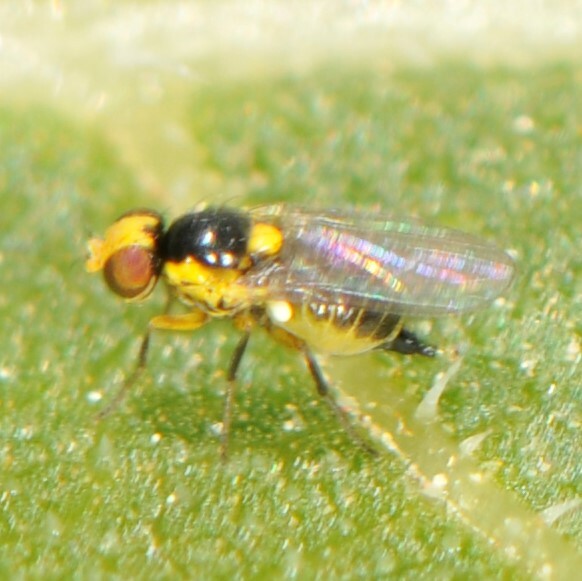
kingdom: Animalia
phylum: Arthropoda
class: Insecta
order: Diptera
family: Agromyzidae
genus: Liriomyza
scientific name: Liriomyza
